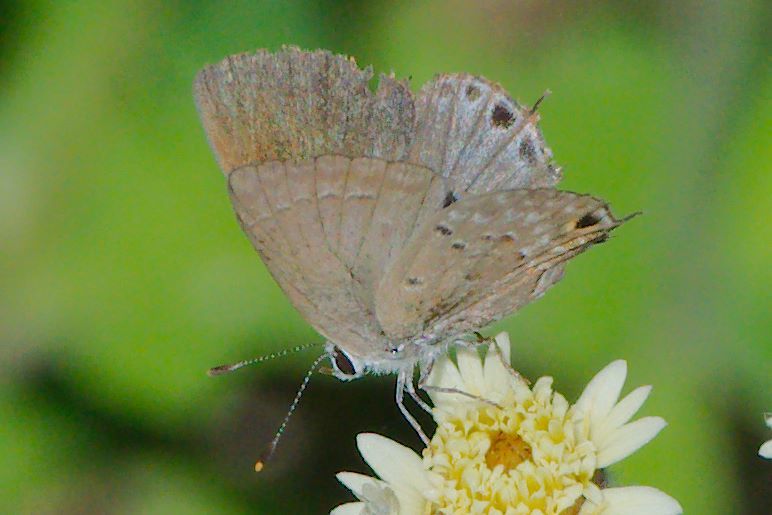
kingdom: Animalia
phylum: Arthropoda
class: Insecta
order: Lepidoptera
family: Lycaenidae
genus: Callicista
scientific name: Callicista columella
